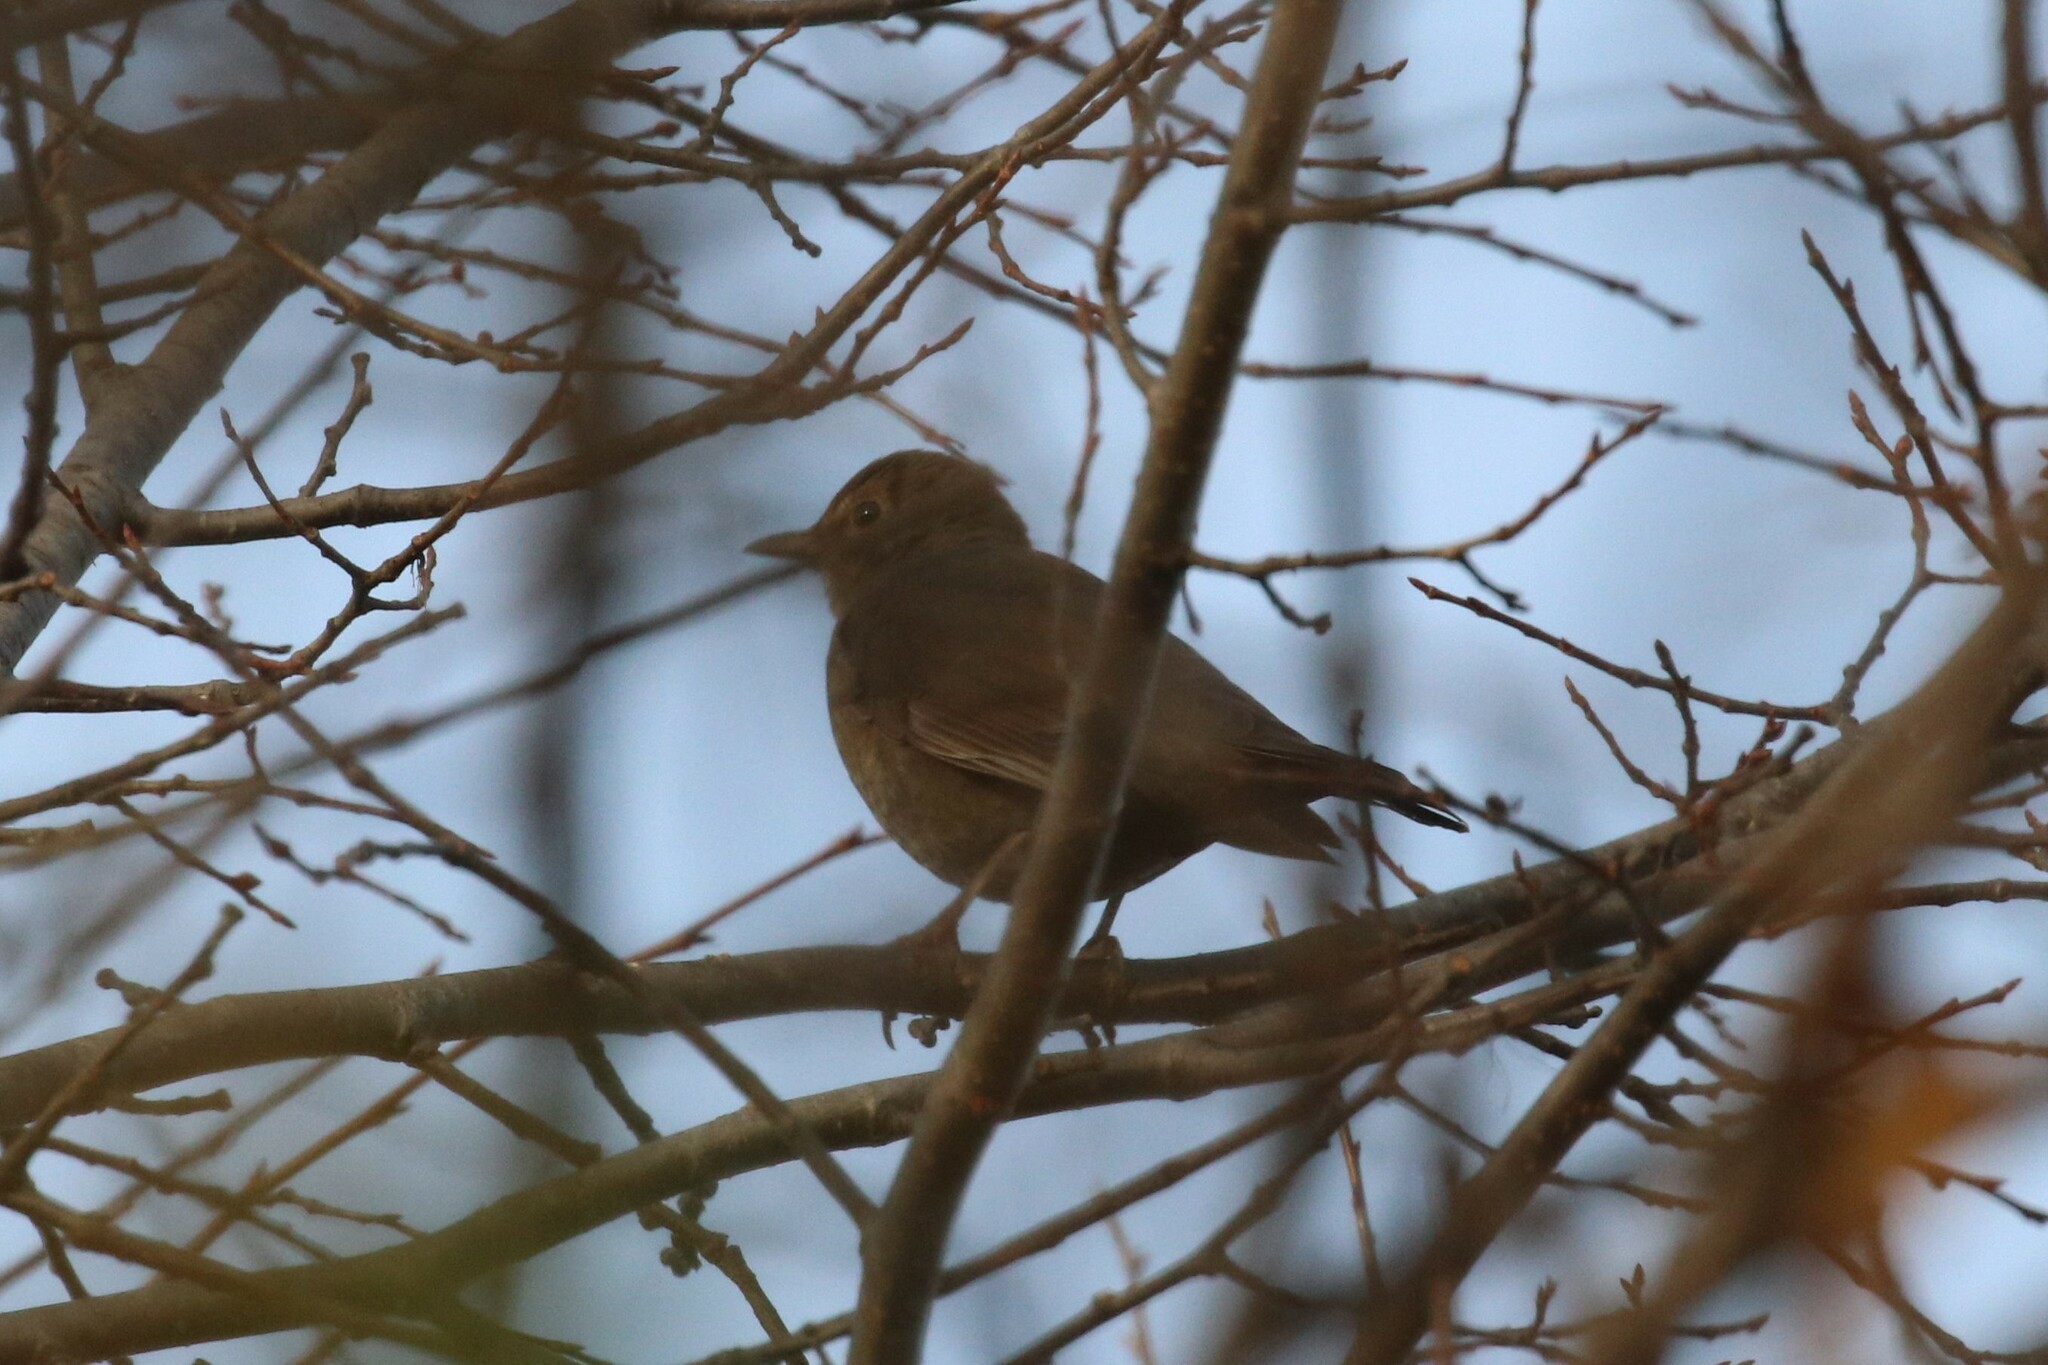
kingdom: Animalia
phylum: Chordata
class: Aves
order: Passeriformes
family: Turdidae
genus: Turdus
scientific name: Turdus merula
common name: Common blackbird
